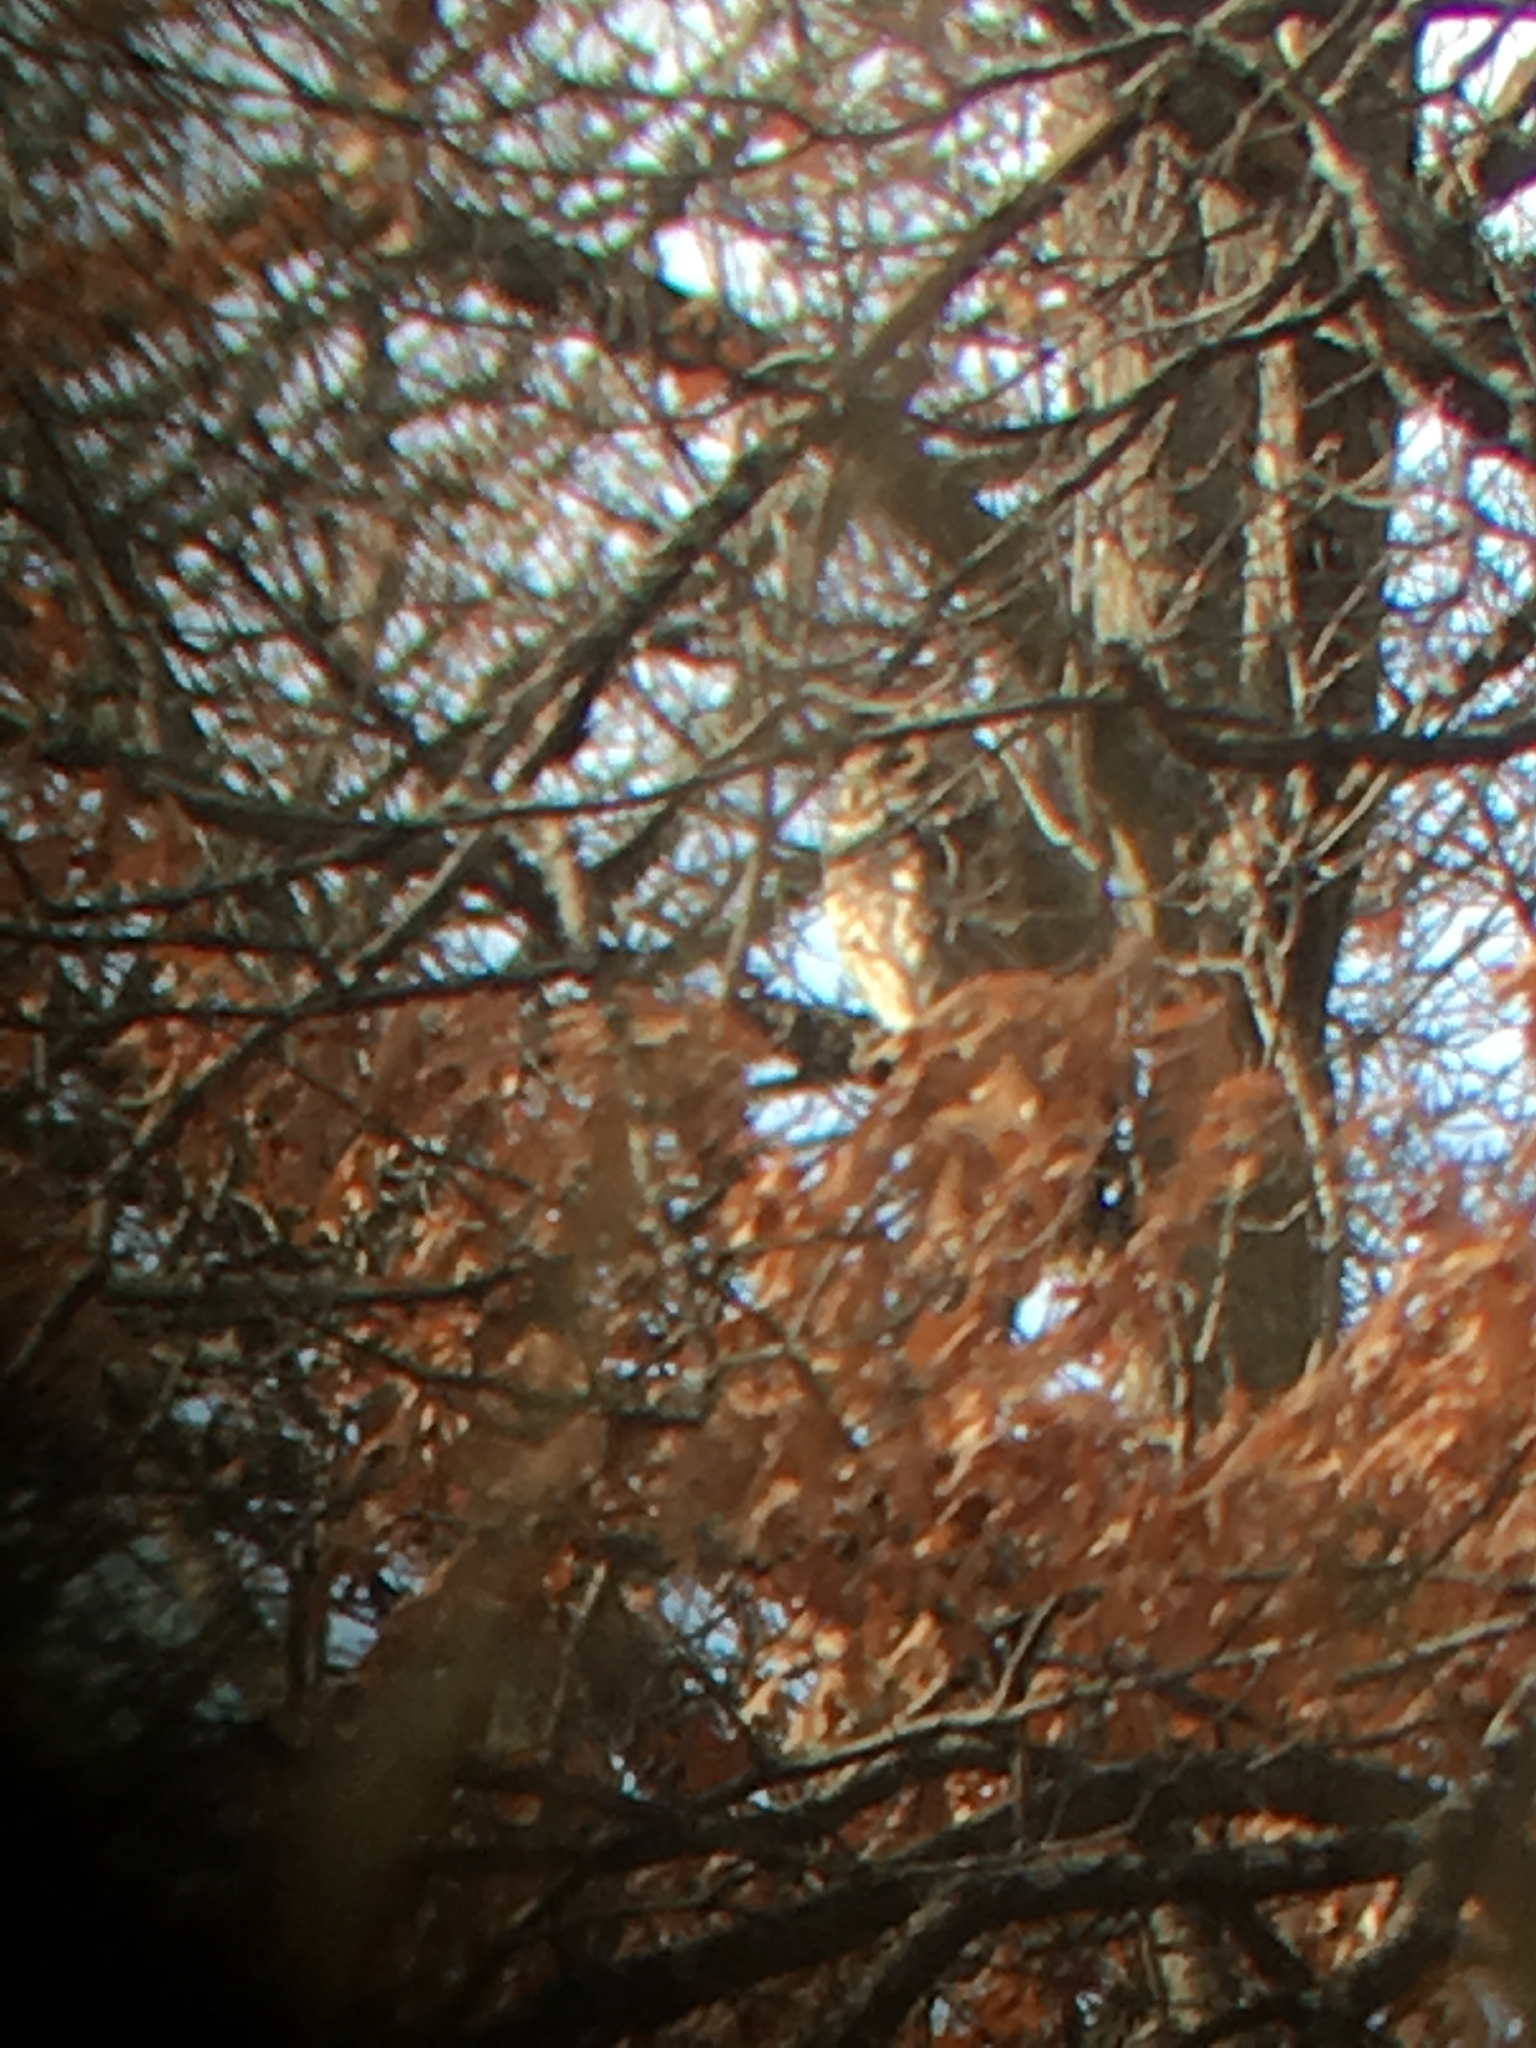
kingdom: Animalia
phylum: Chordata
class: Aves
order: Strigiformes
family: Strigidae
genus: Bubo
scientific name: Bubo virginianus
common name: Great horned owl
